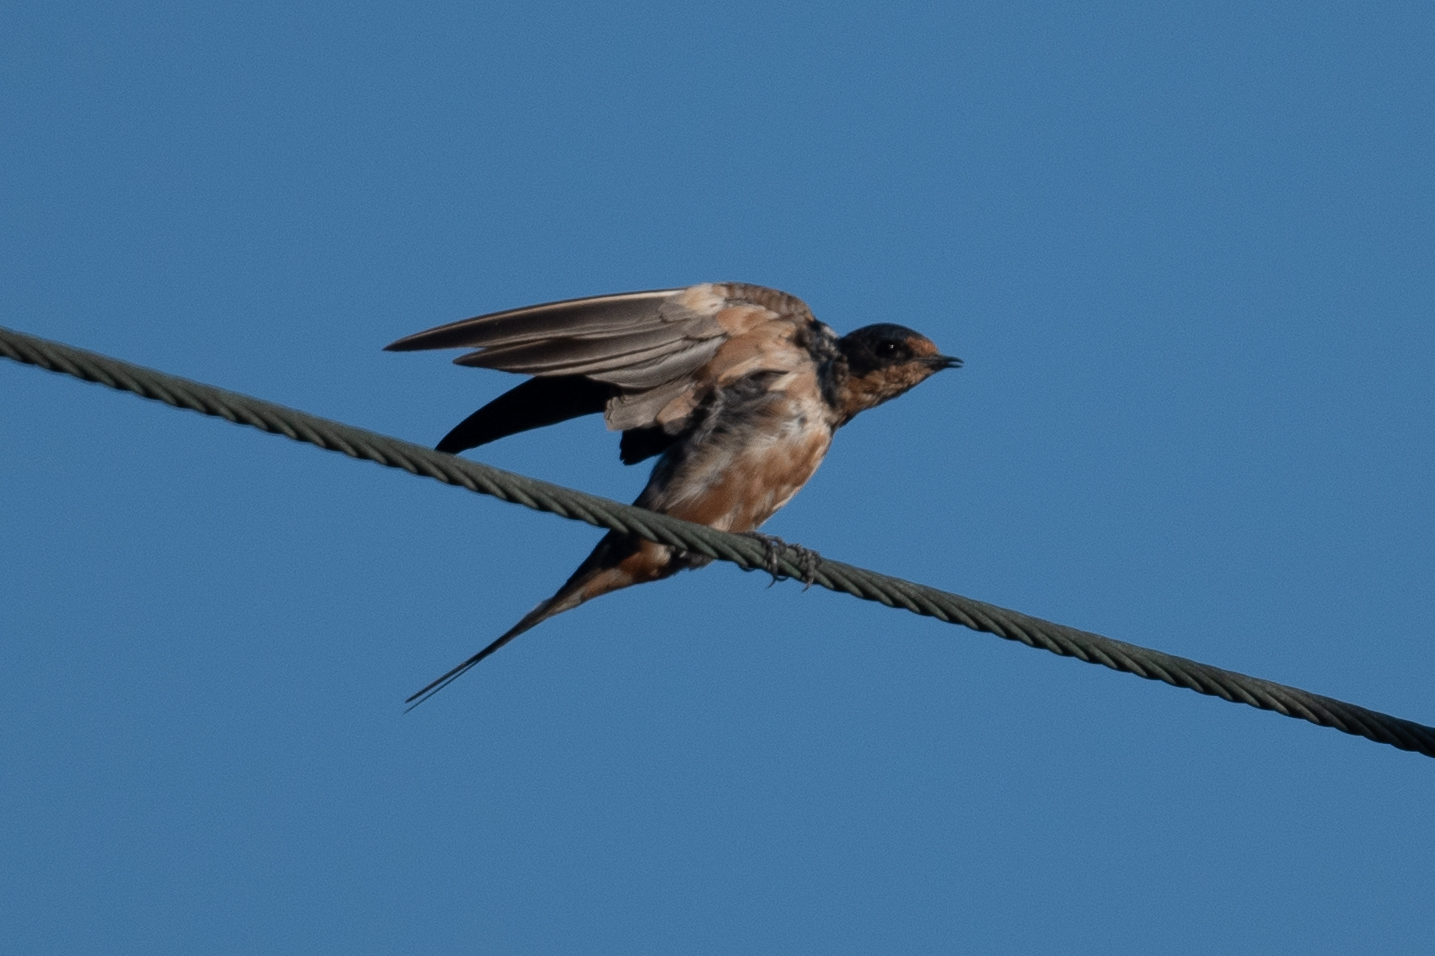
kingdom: Animalia
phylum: Chordata
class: Aves
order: Passeriformes
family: Hirundinidae
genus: Hirundo
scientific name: Hirundo rustica
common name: Barn swallow
